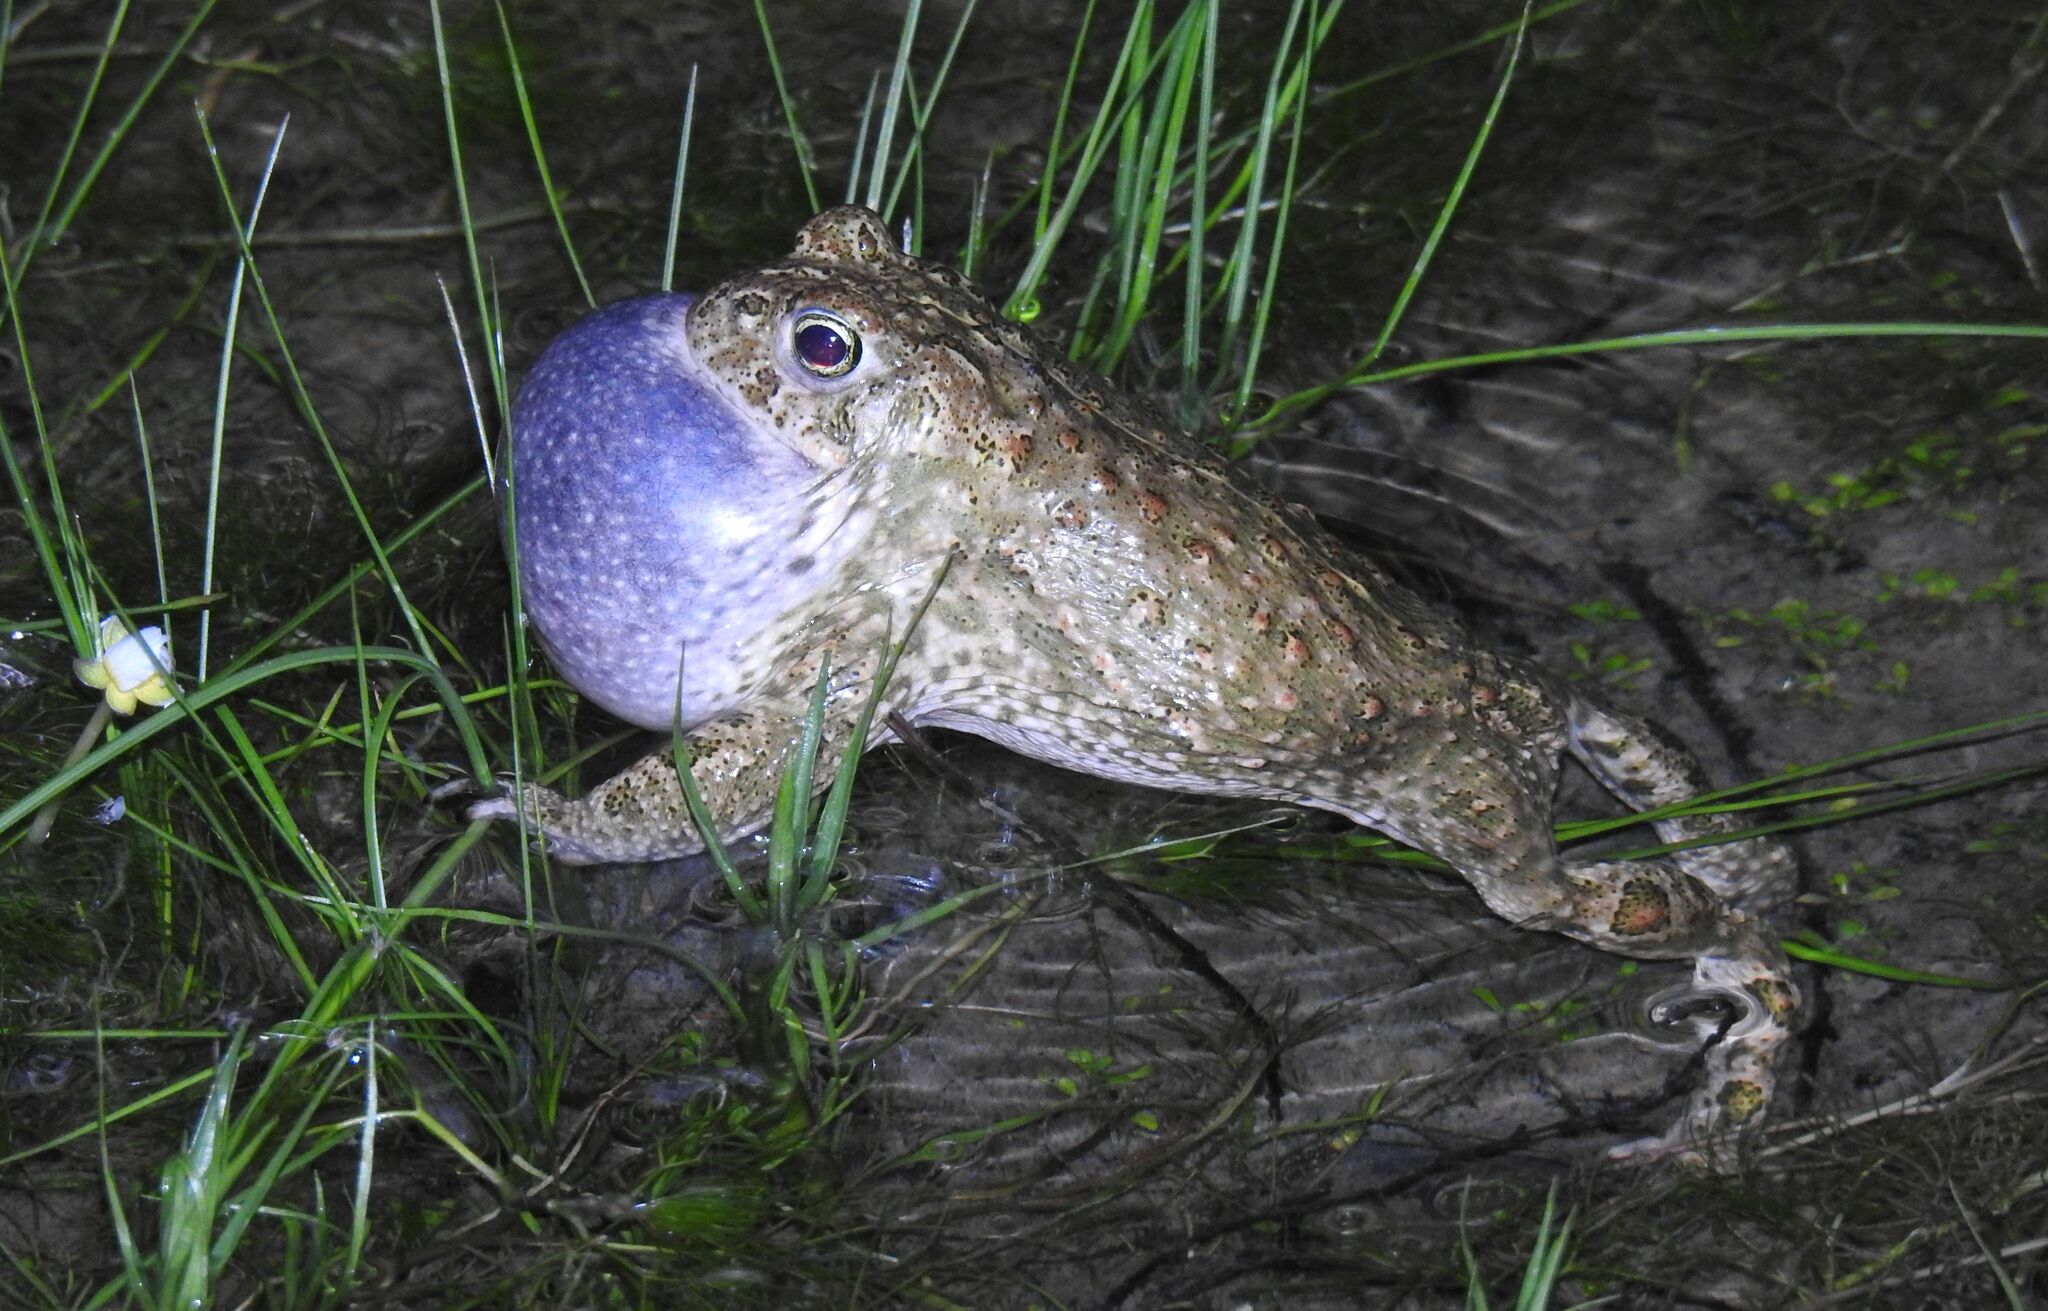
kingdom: Animalia
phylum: Chordata
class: Amphibia
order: Anura
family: Bufonidae
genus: Epidalea
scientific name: Epidalea calamita
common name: Natterjack toad
